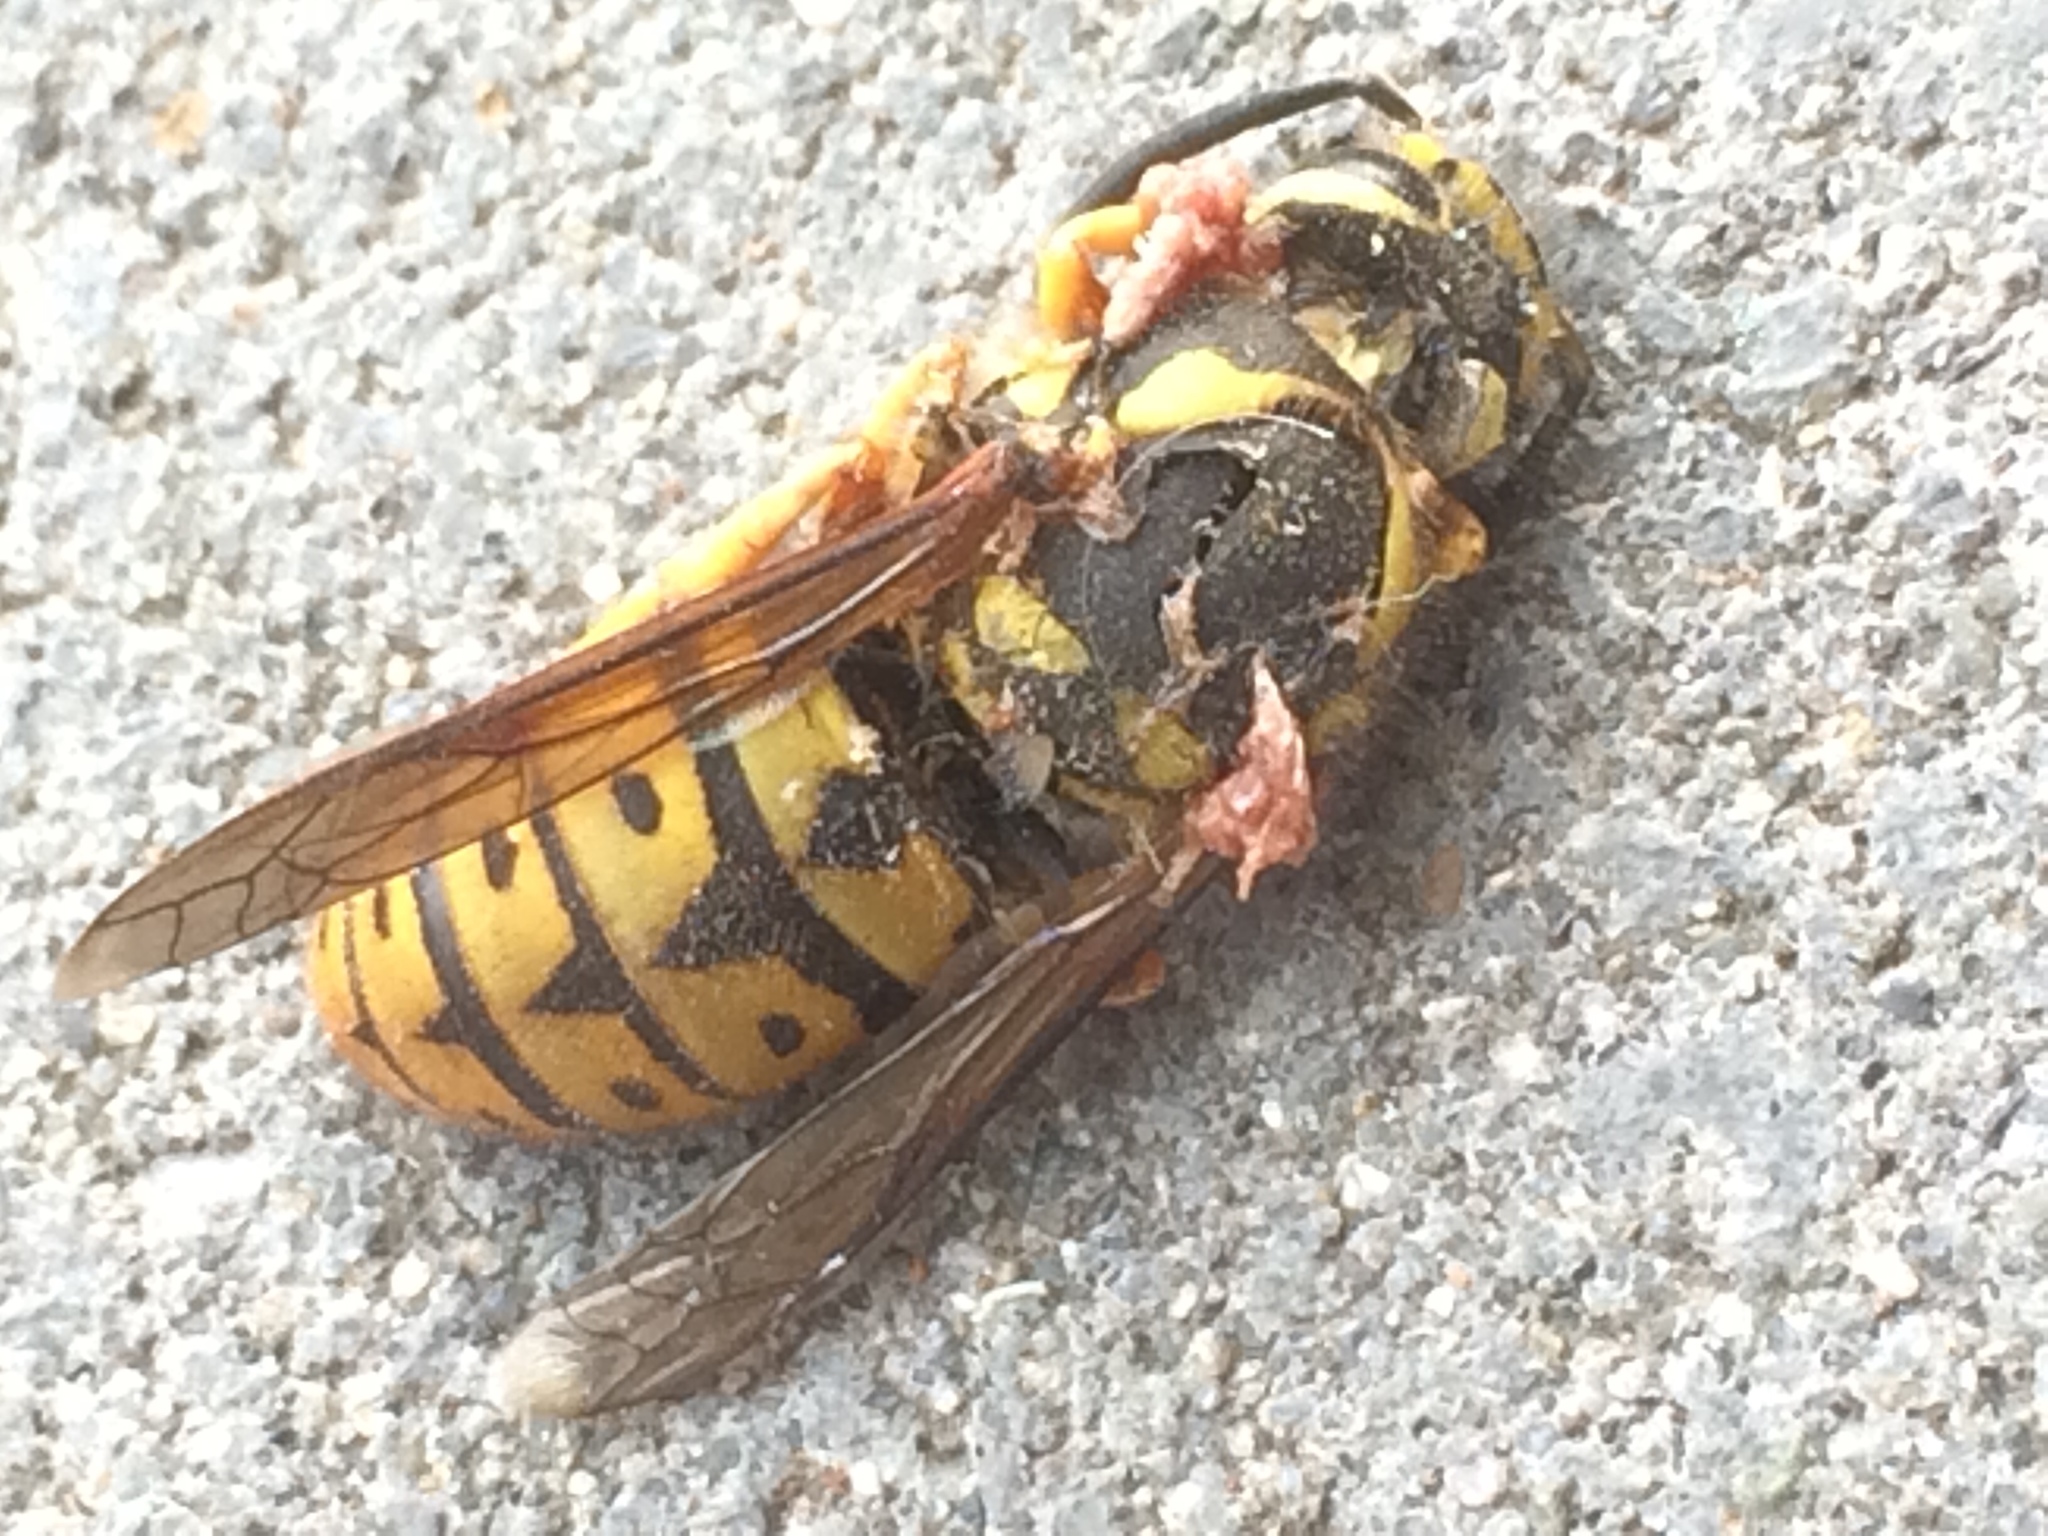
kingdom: Animalia
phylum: Arthropoda
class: Insecta
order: Hymenoptera
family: Vespidae
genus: Vespula
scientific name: Vespula pensylvanica
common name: Western yellowjacket
